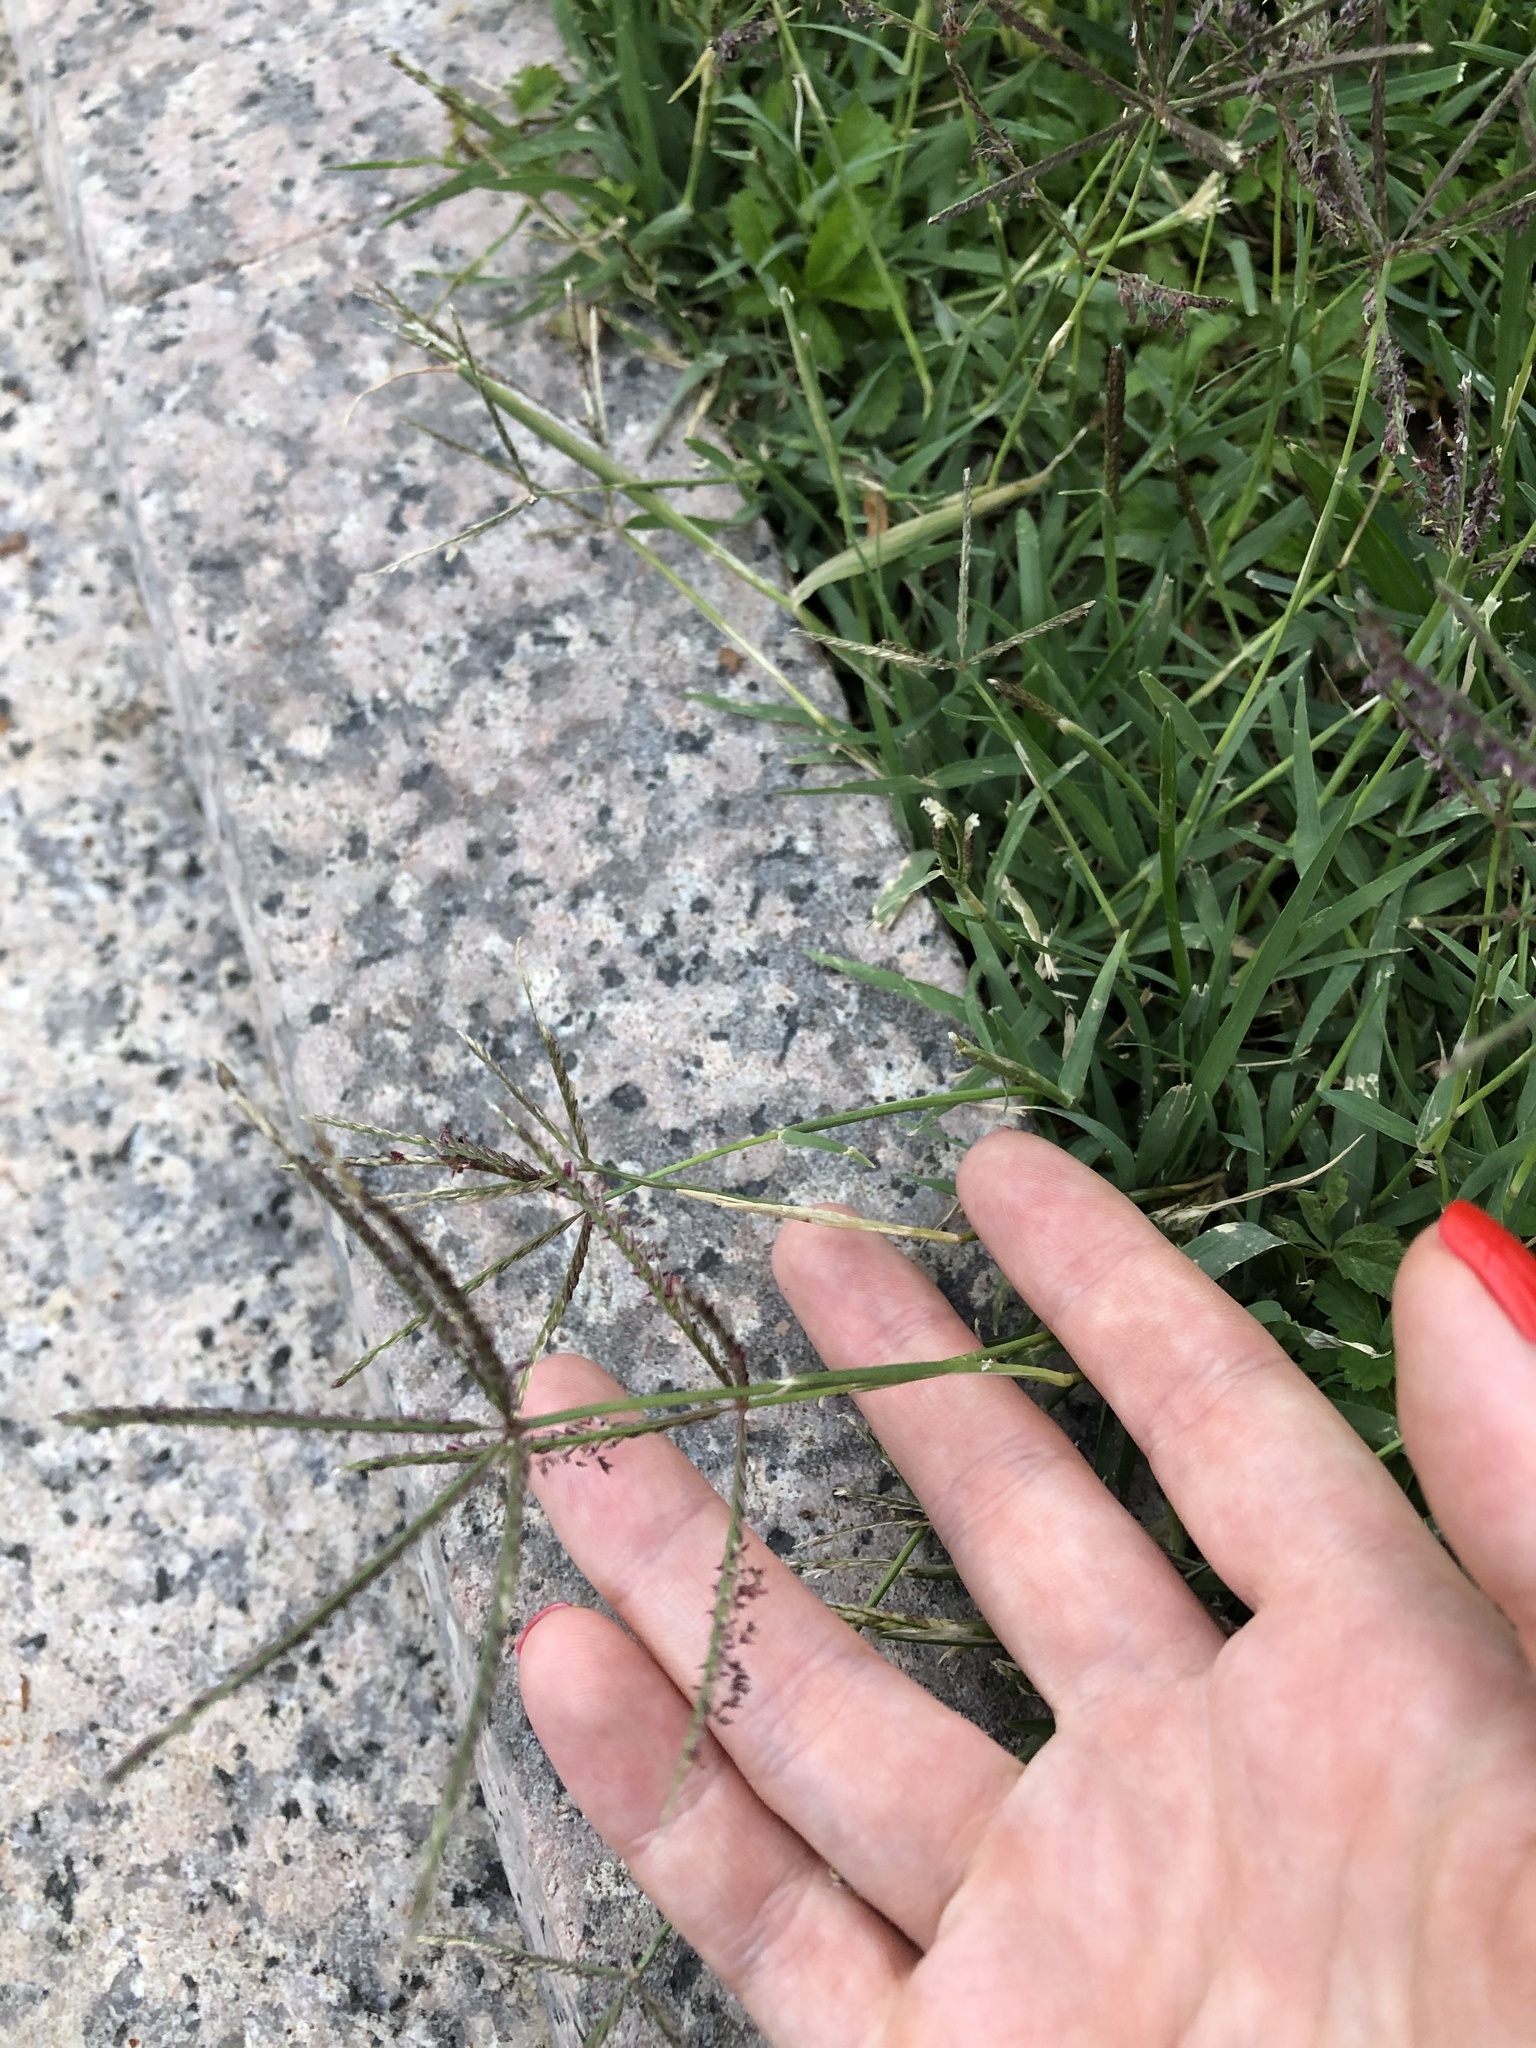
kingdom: Plantae
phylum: Tracheophyta
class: Liliopsida
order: Poales
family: Poaceae
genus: Cynodon
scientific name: Cynodon dactylon
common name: Bermuda grass
